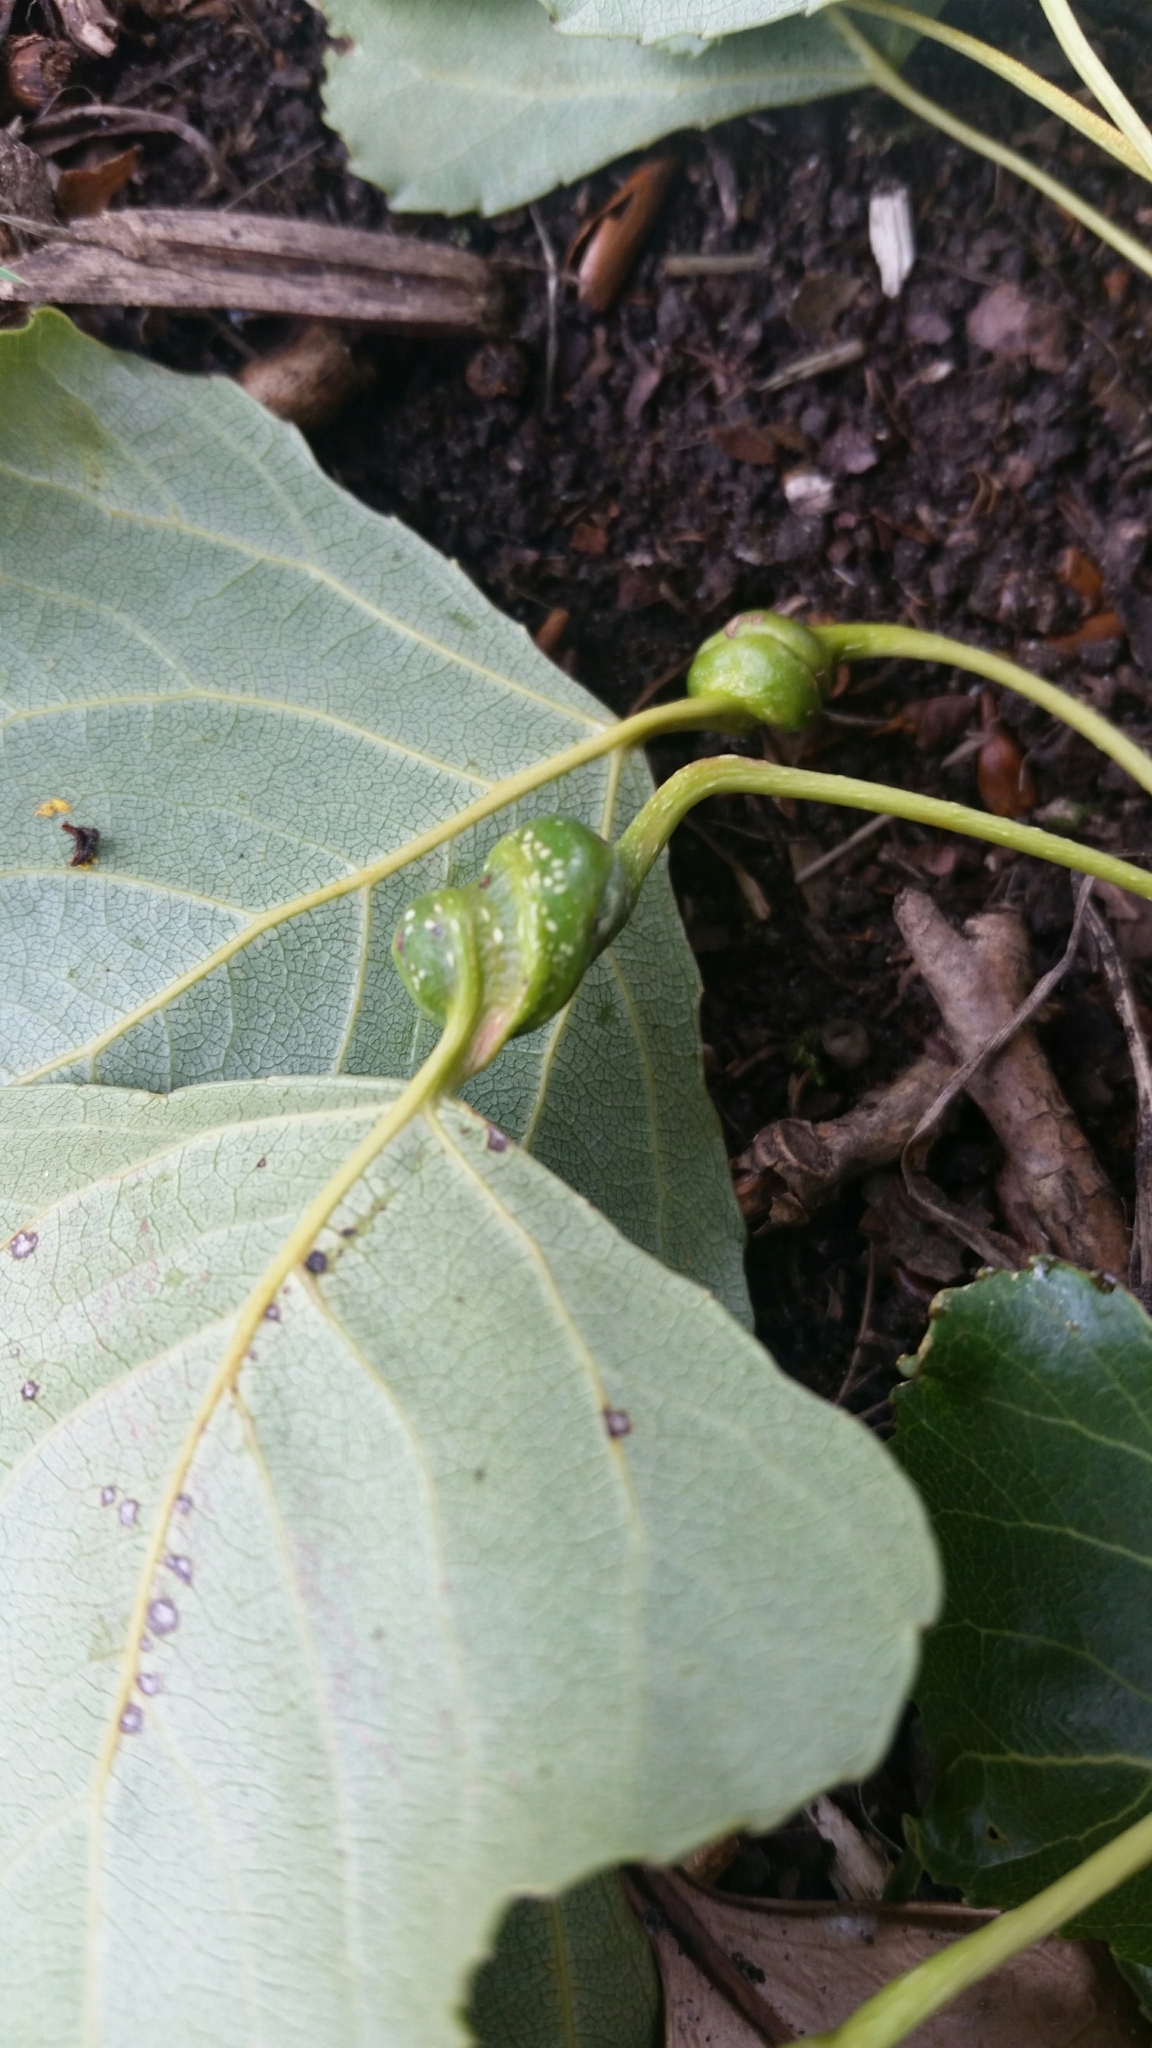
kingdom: Animalia
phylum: Arthropoda
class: Insecta
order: Hemiptera
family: Aphididae
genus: Pemphigus
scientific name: Pemphigus spyrothecae
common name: Aphid
